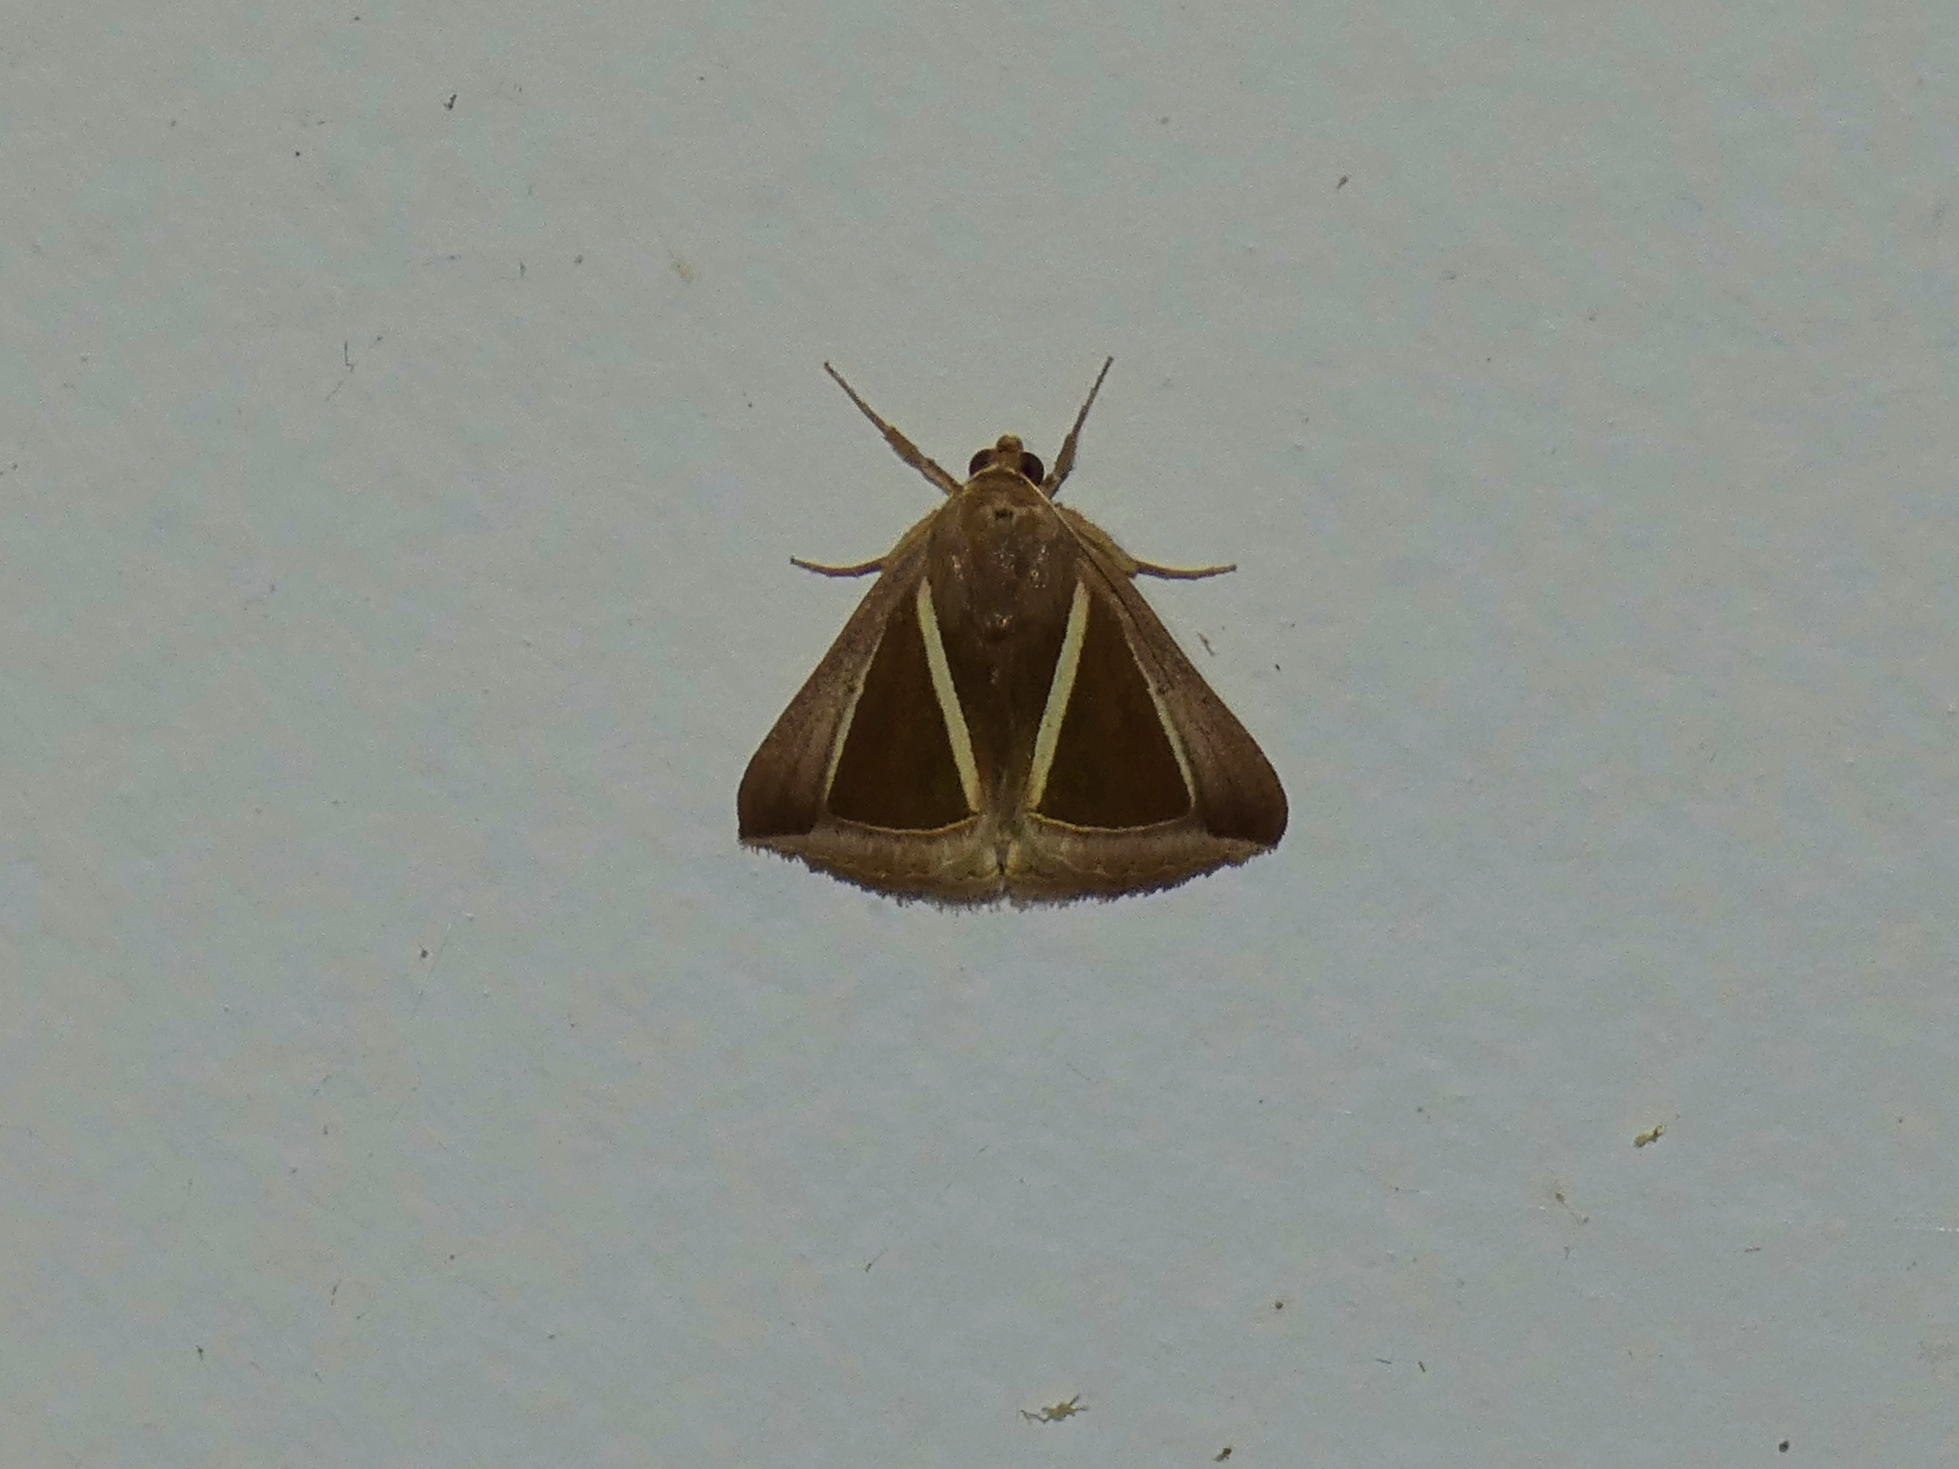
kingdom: Animalia
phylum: Arthropoda
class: Insecta
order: Lepidoptera
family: Erebidae
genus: Chalciope
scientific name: Chalciope alcyona
